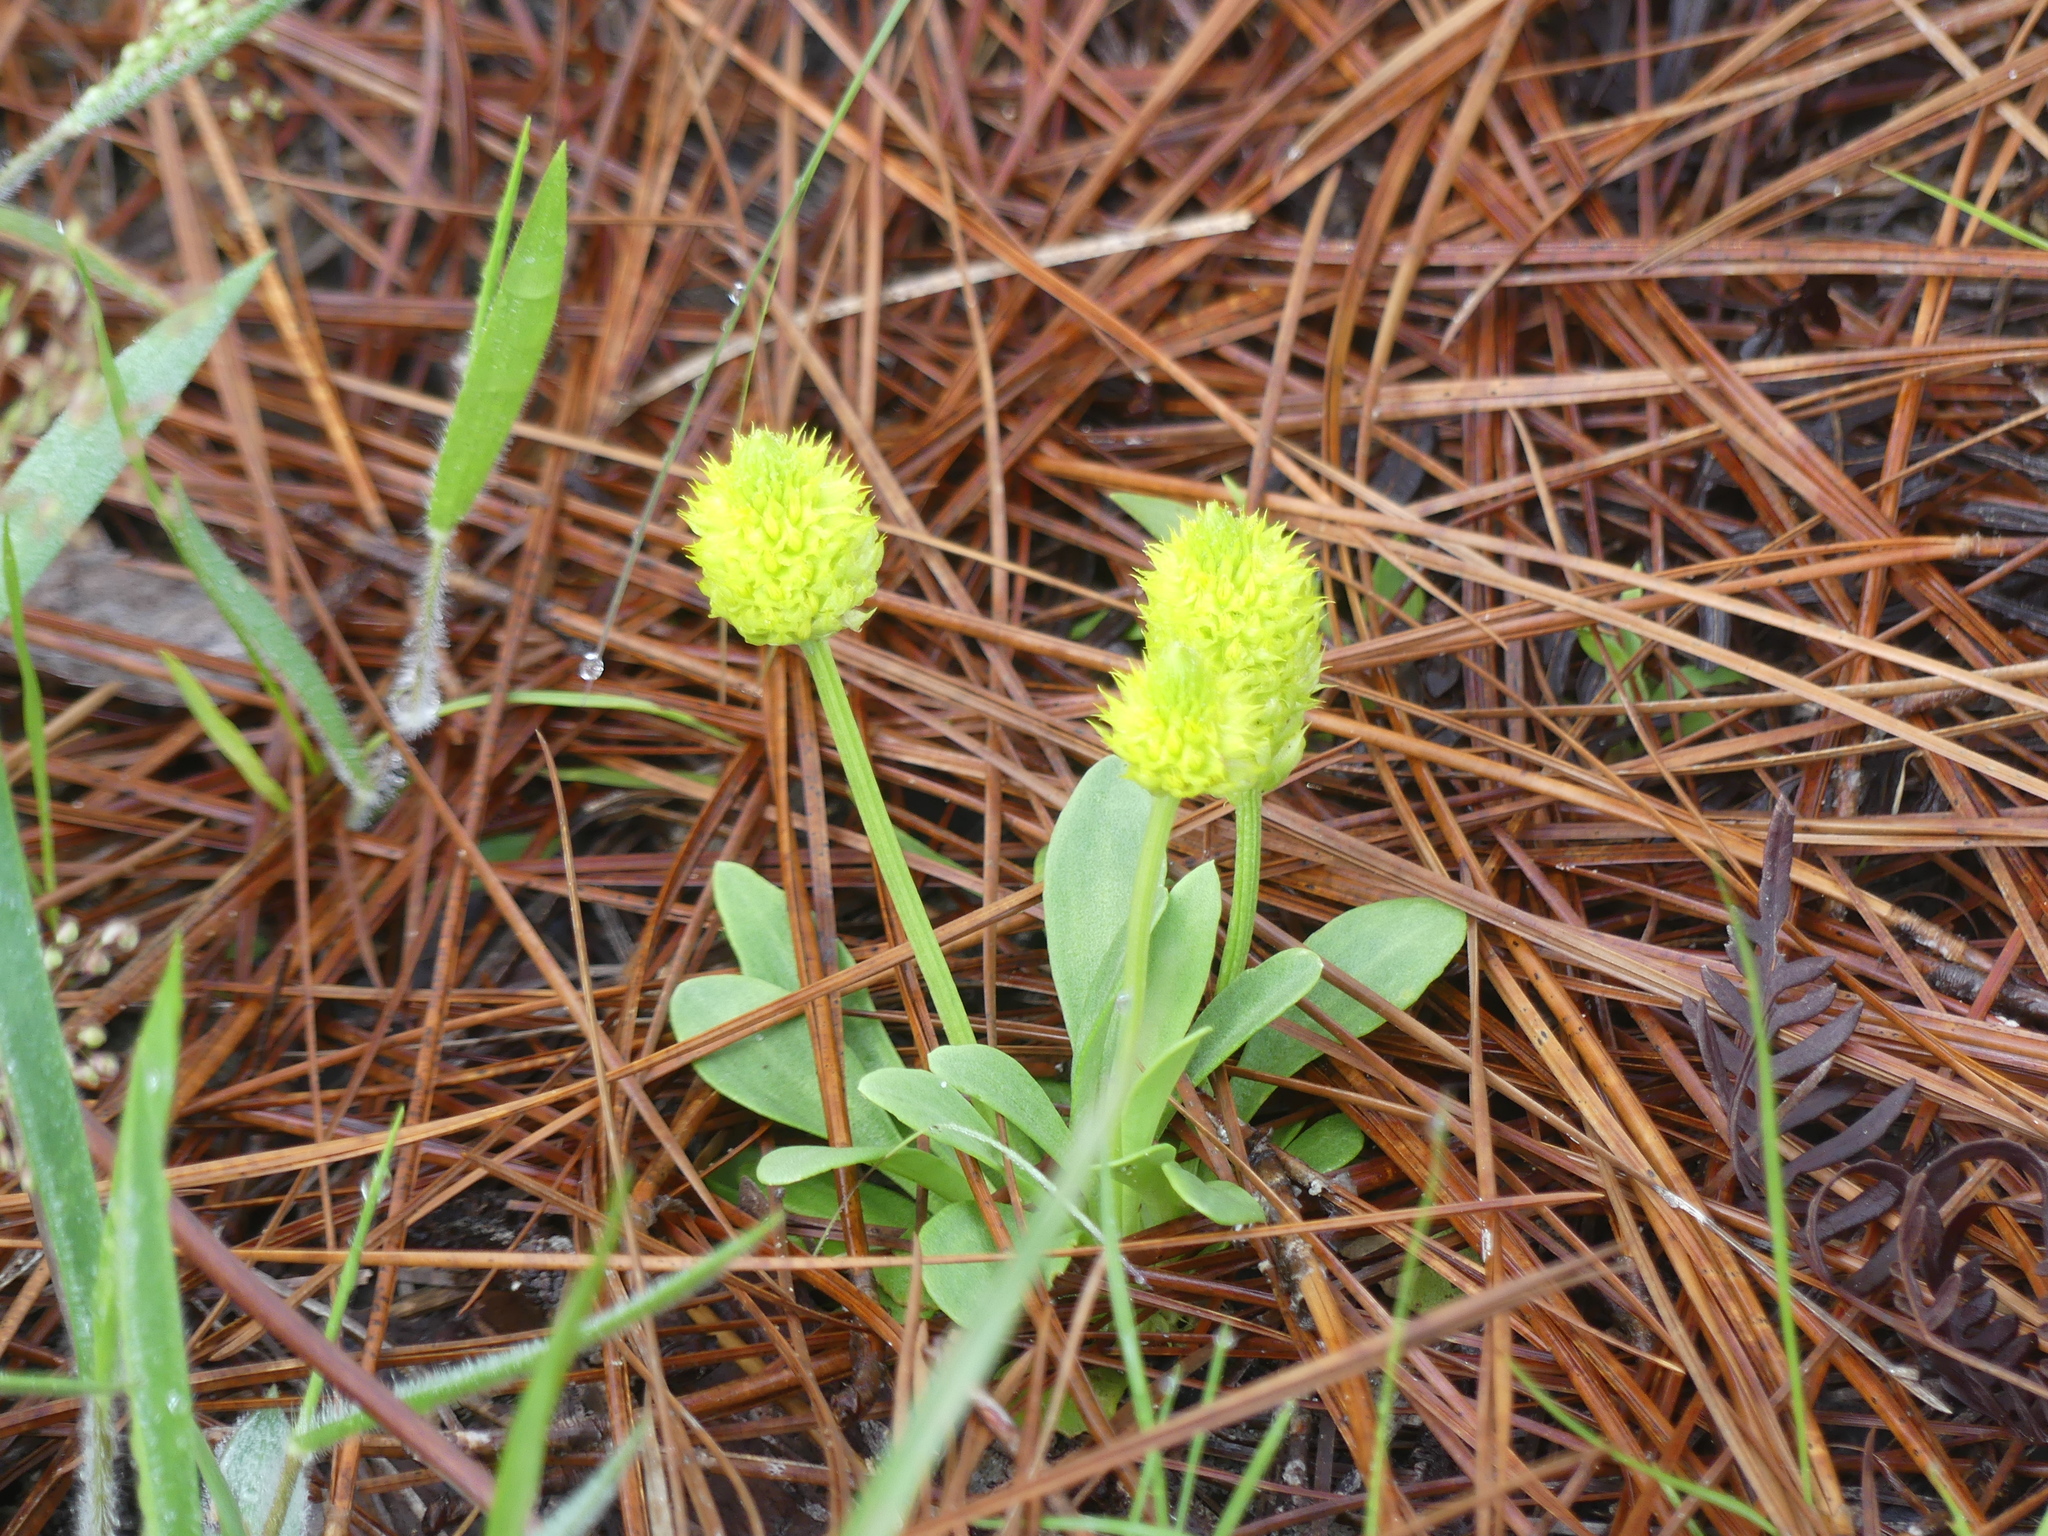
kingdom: Plantae
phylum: Tracheophyta
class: Magnoliopsida
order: Fabales
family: Polygalaceae
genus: Polygala
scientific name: Polygala nana
